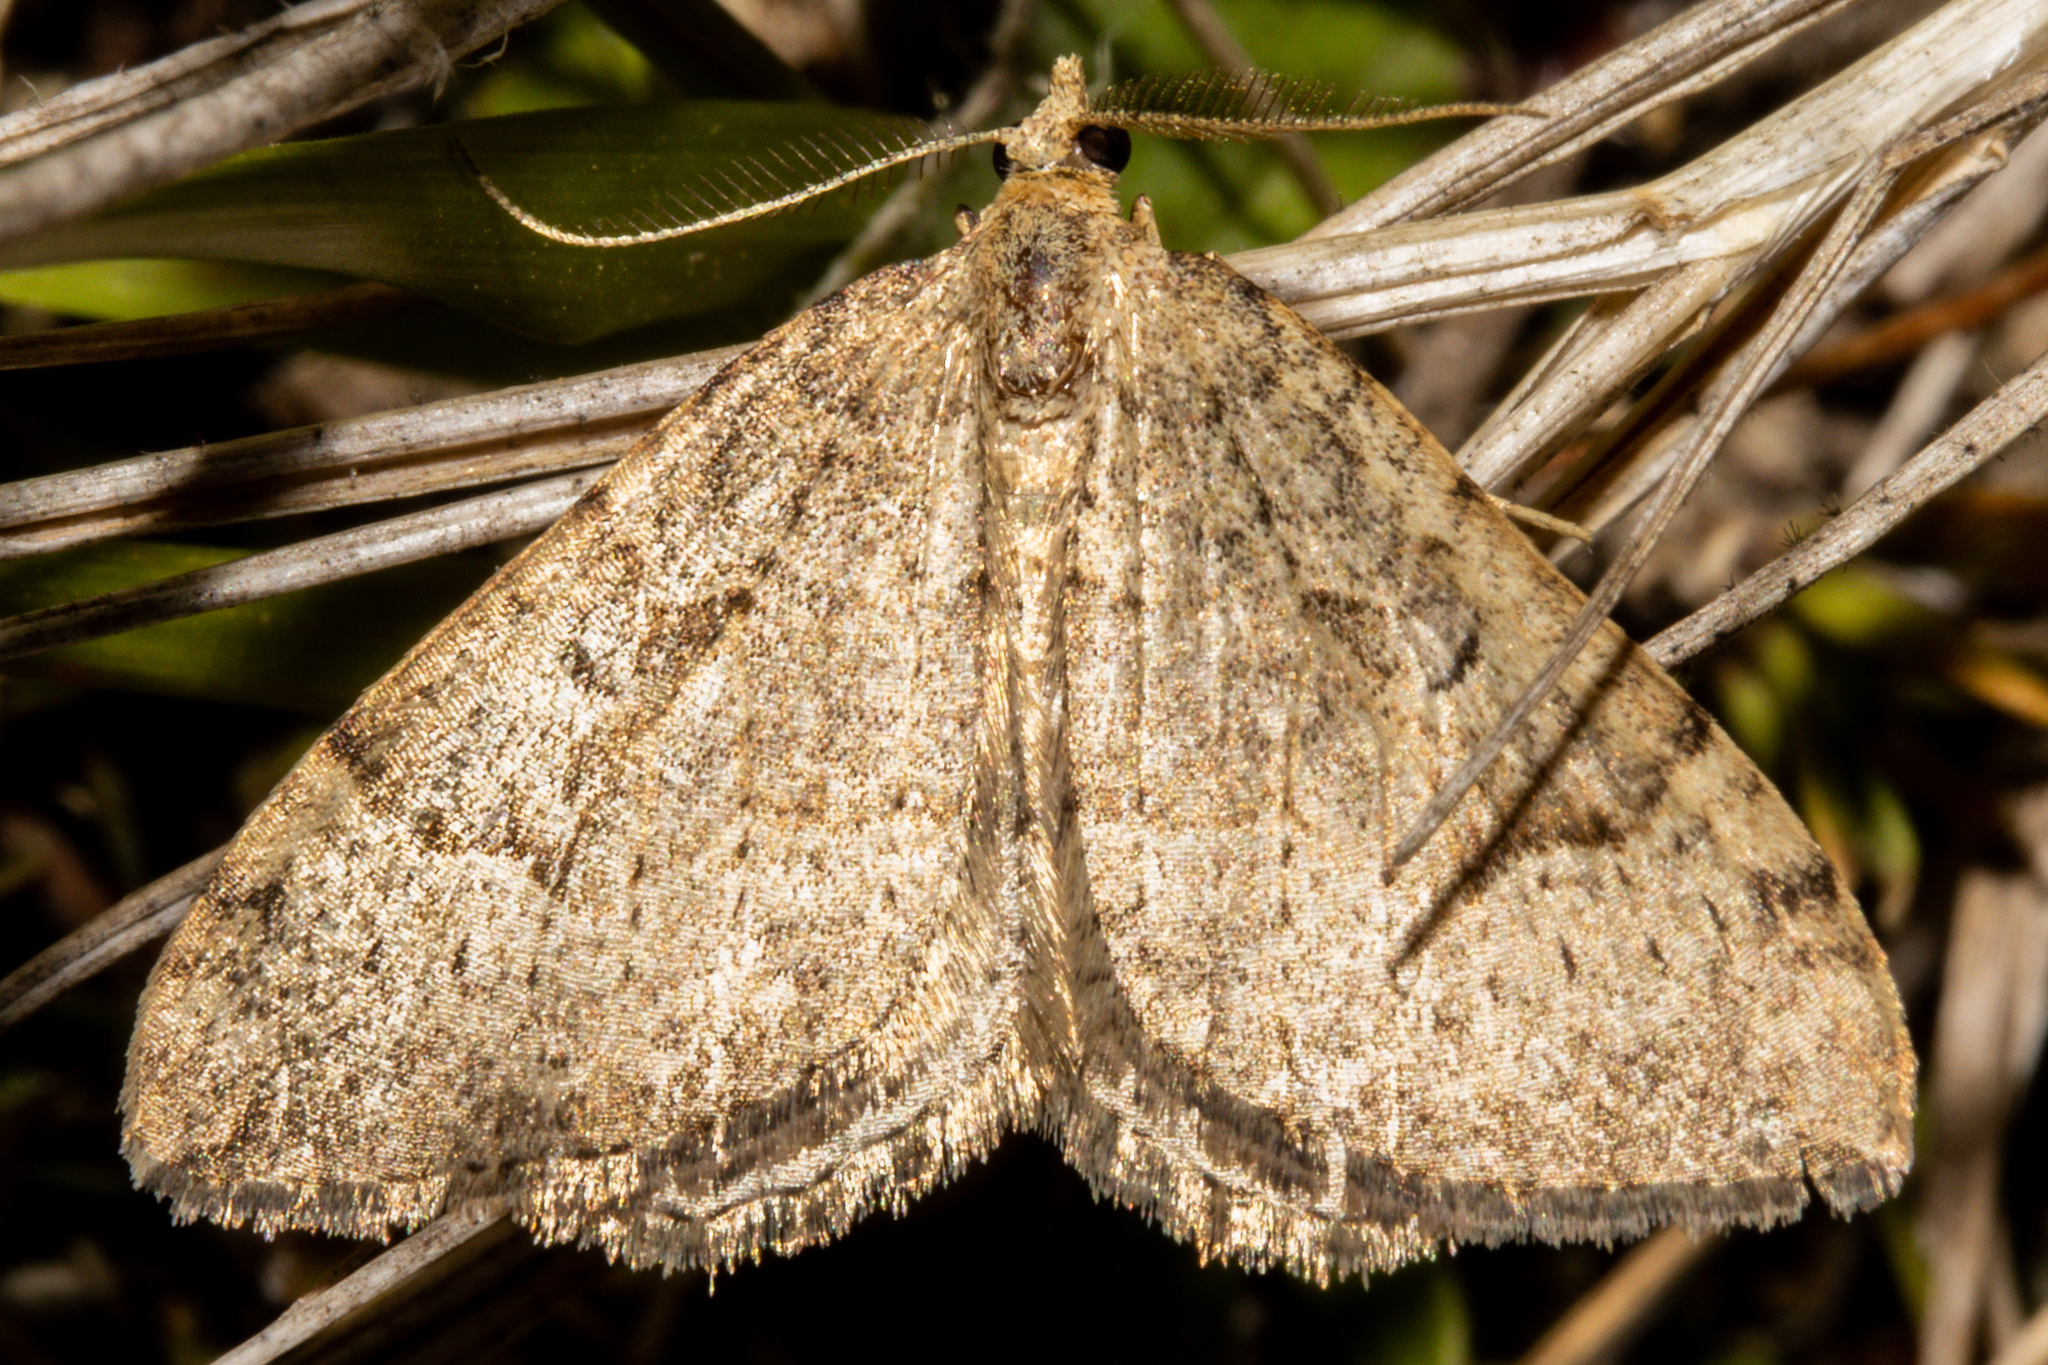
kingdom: Animalia
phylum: Arthropoda
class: Insecta
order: Lepidoptera
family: Geometridae
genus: Epyaxa
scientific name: Epyaxa rosearia
